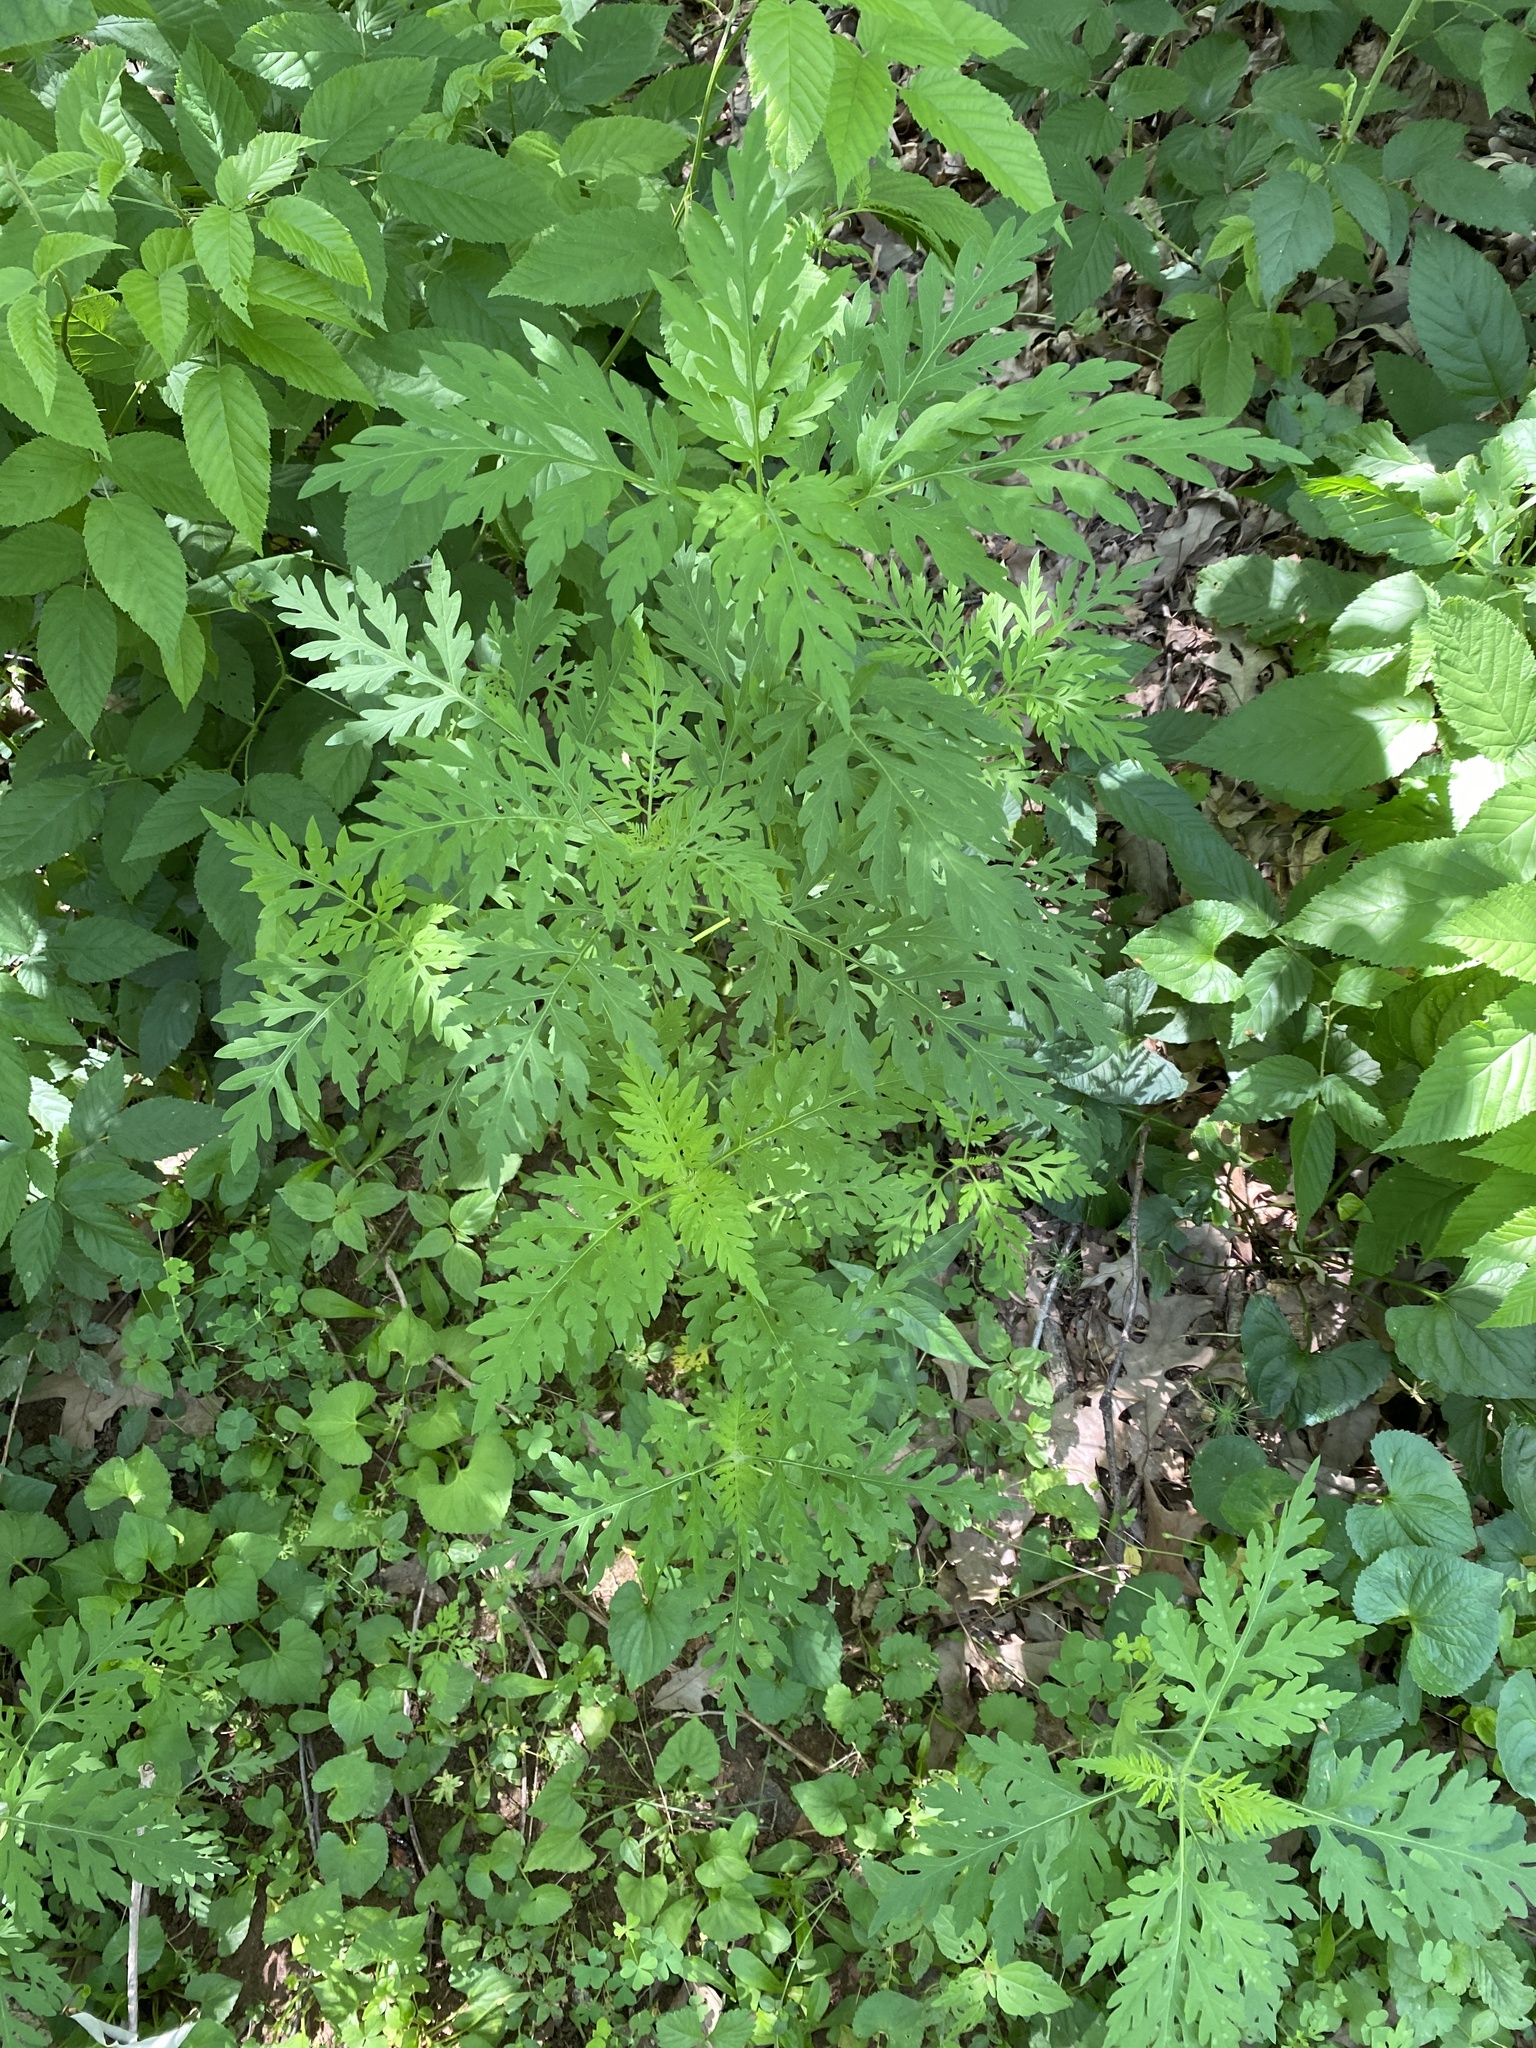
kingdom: Plantae
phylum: Tracheophyta
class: Magnoliopsida
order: Asterales
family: Asteraceae
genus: Ambrosia
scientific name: Ambrosia artemisiifolia
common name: Annual ragweed
